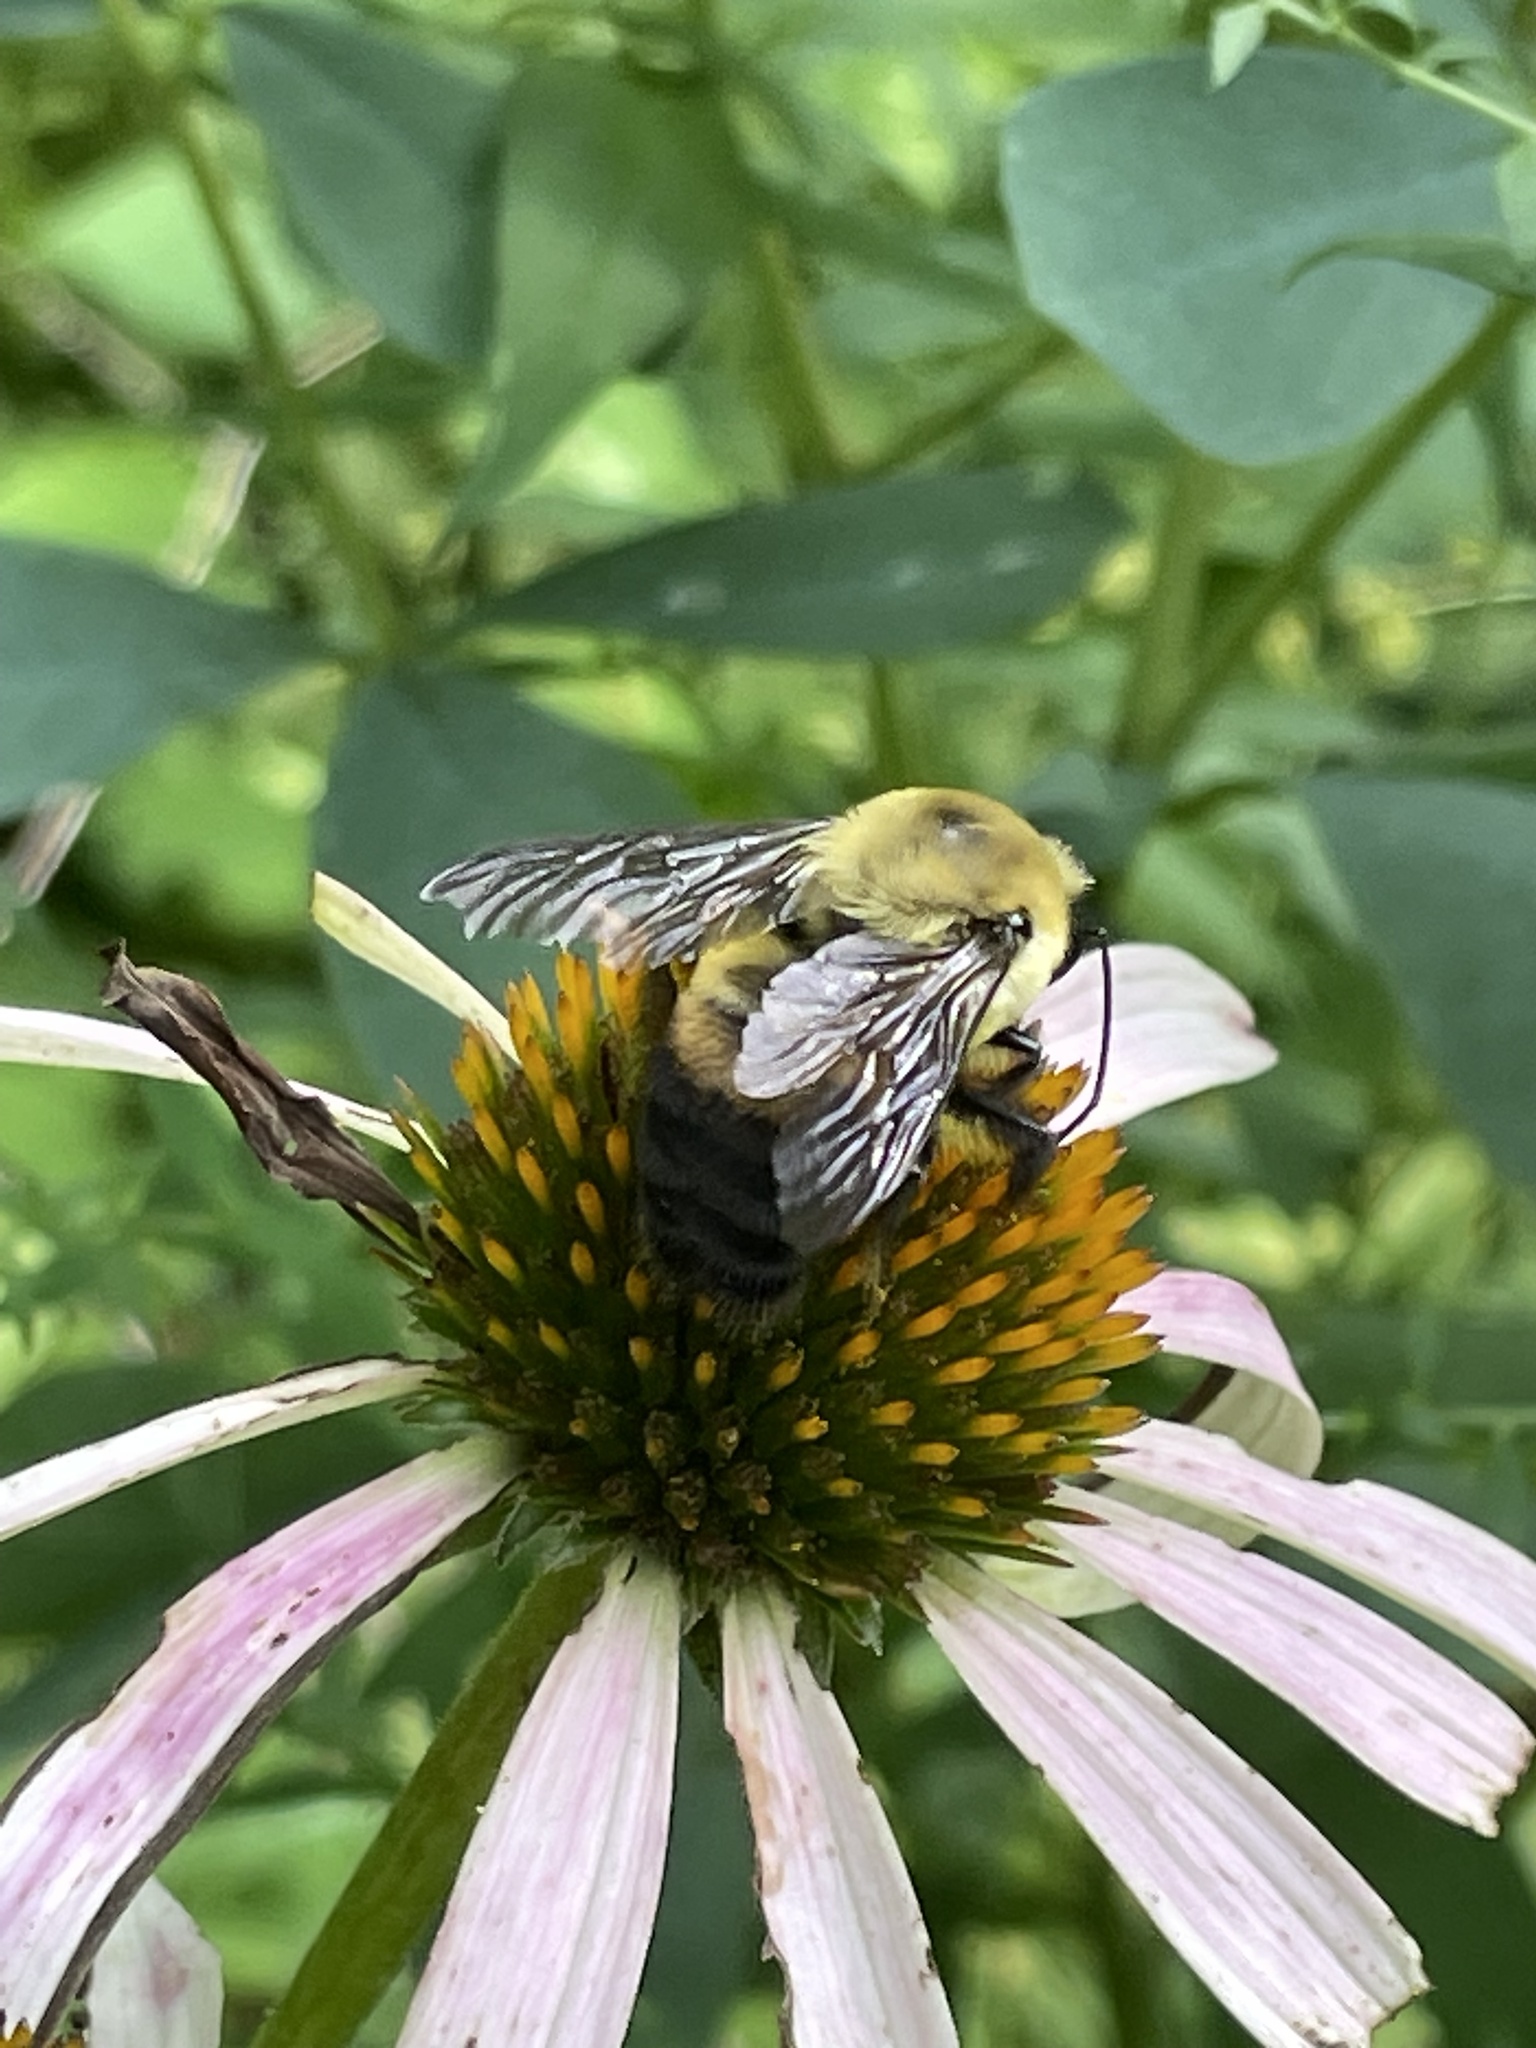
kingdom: Animalia
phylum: Arthropoda
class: Insecta
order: Hymenoptera
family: Apidae
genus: Bombus
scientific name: Bombus griseocollis
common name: Brown-belted bumble bee
